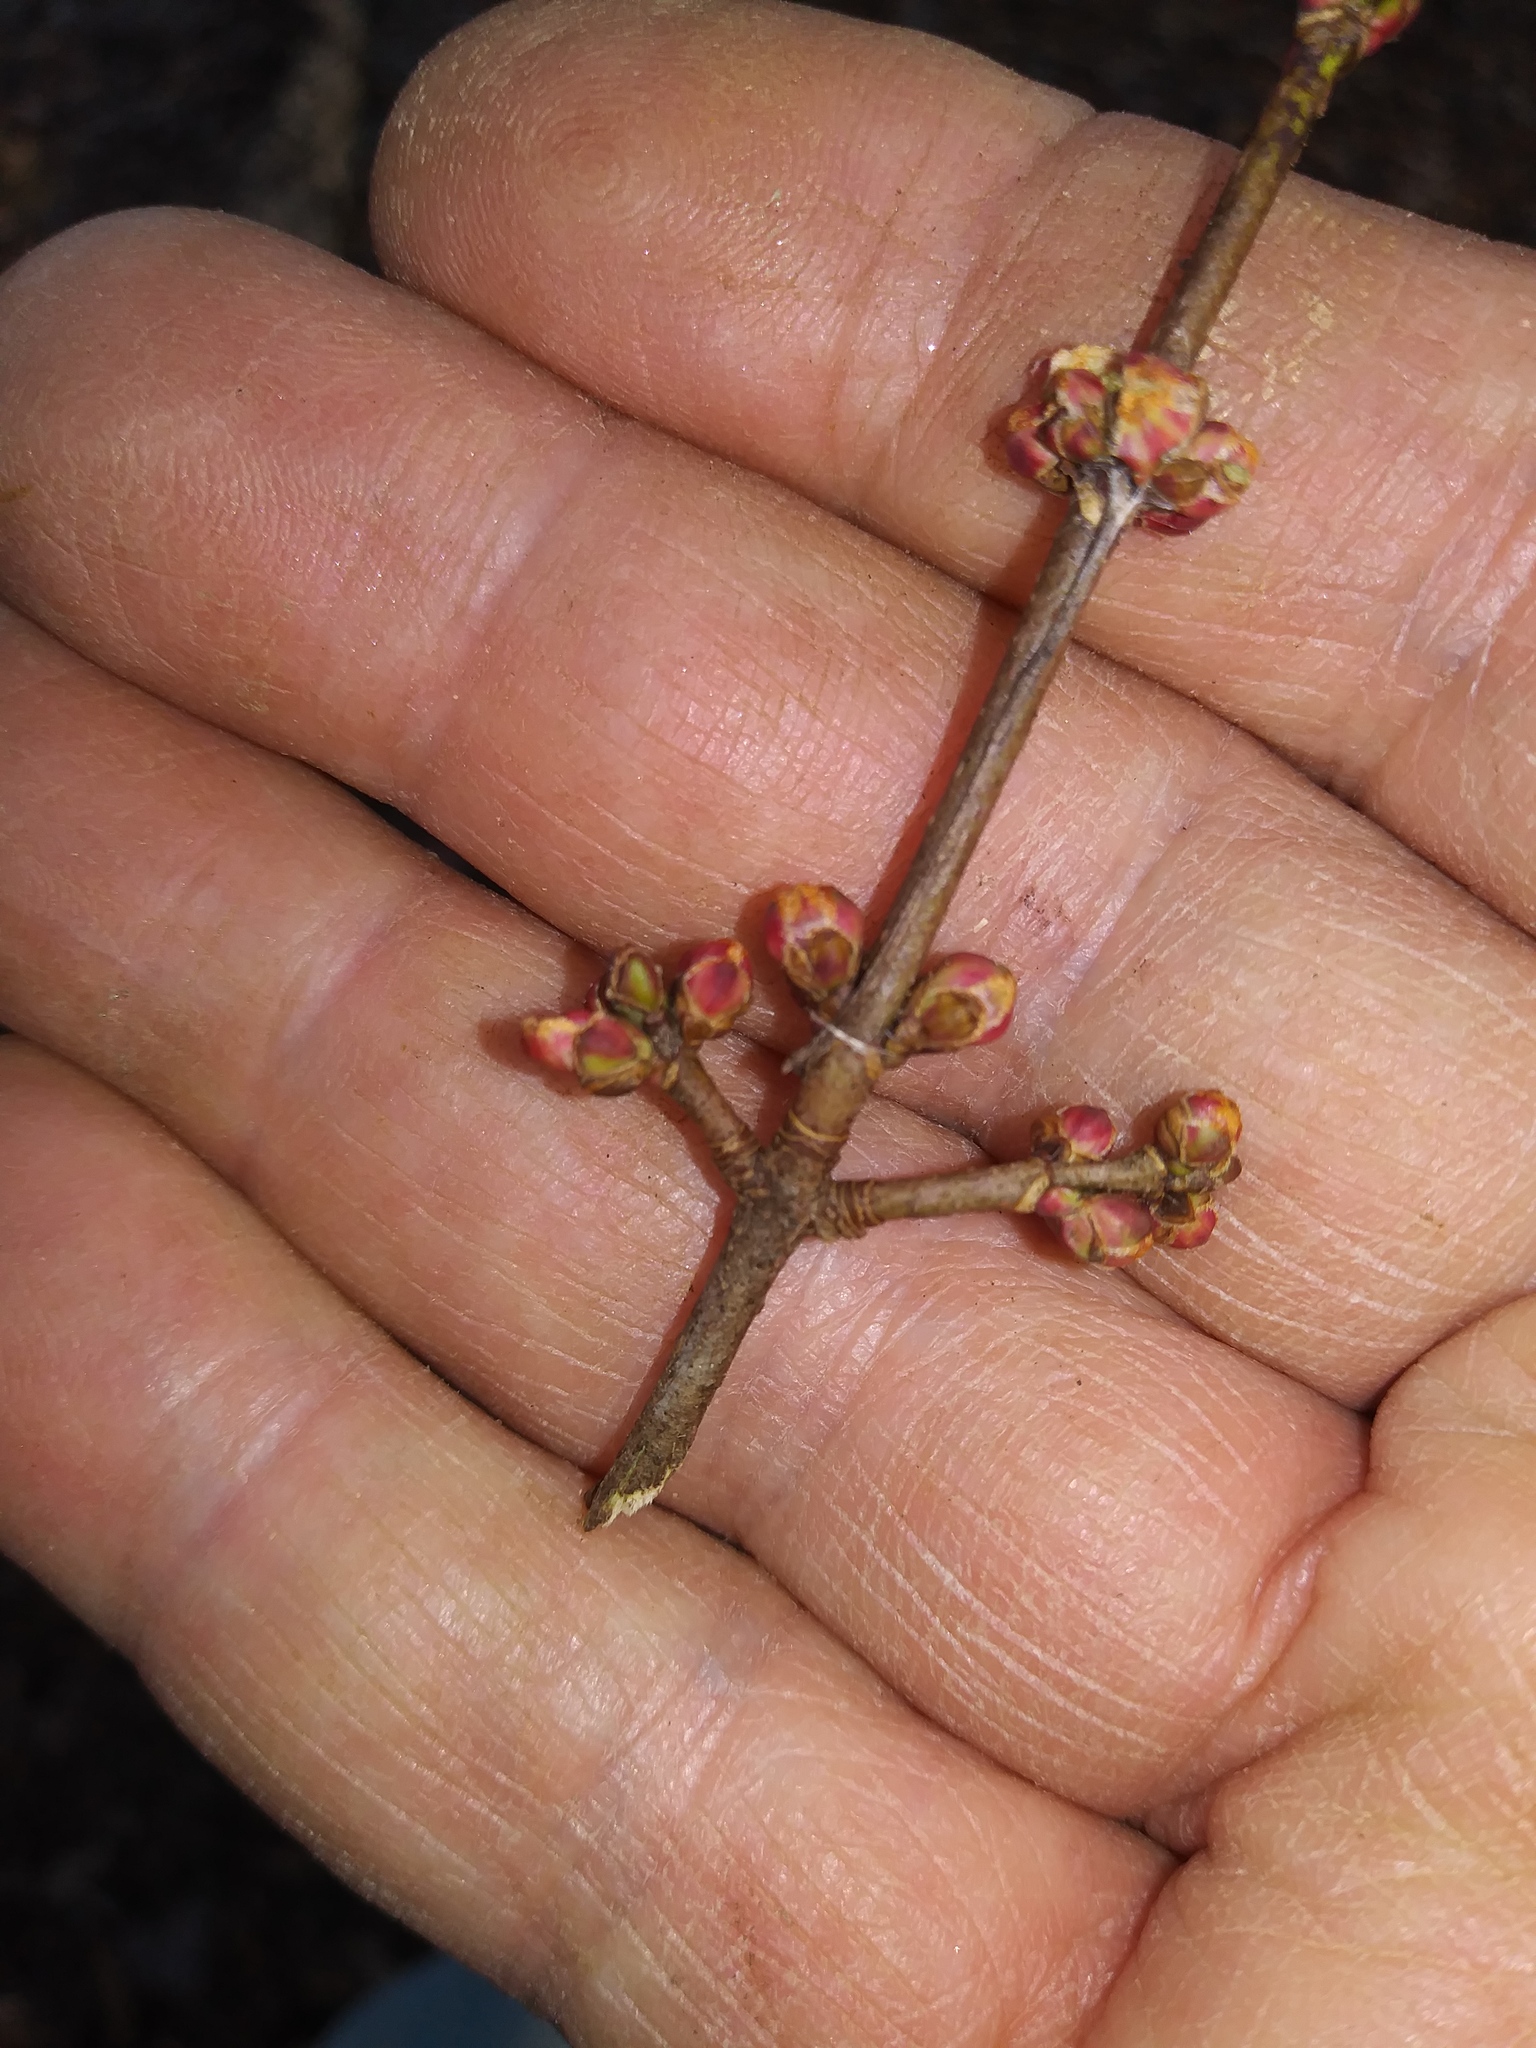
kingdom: Plantae
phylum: Tracheophyta
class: Magnoliopsida
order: Sapindales
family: Sapindaceae
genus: Acer
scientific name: Acer rubrum
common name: Red maple
